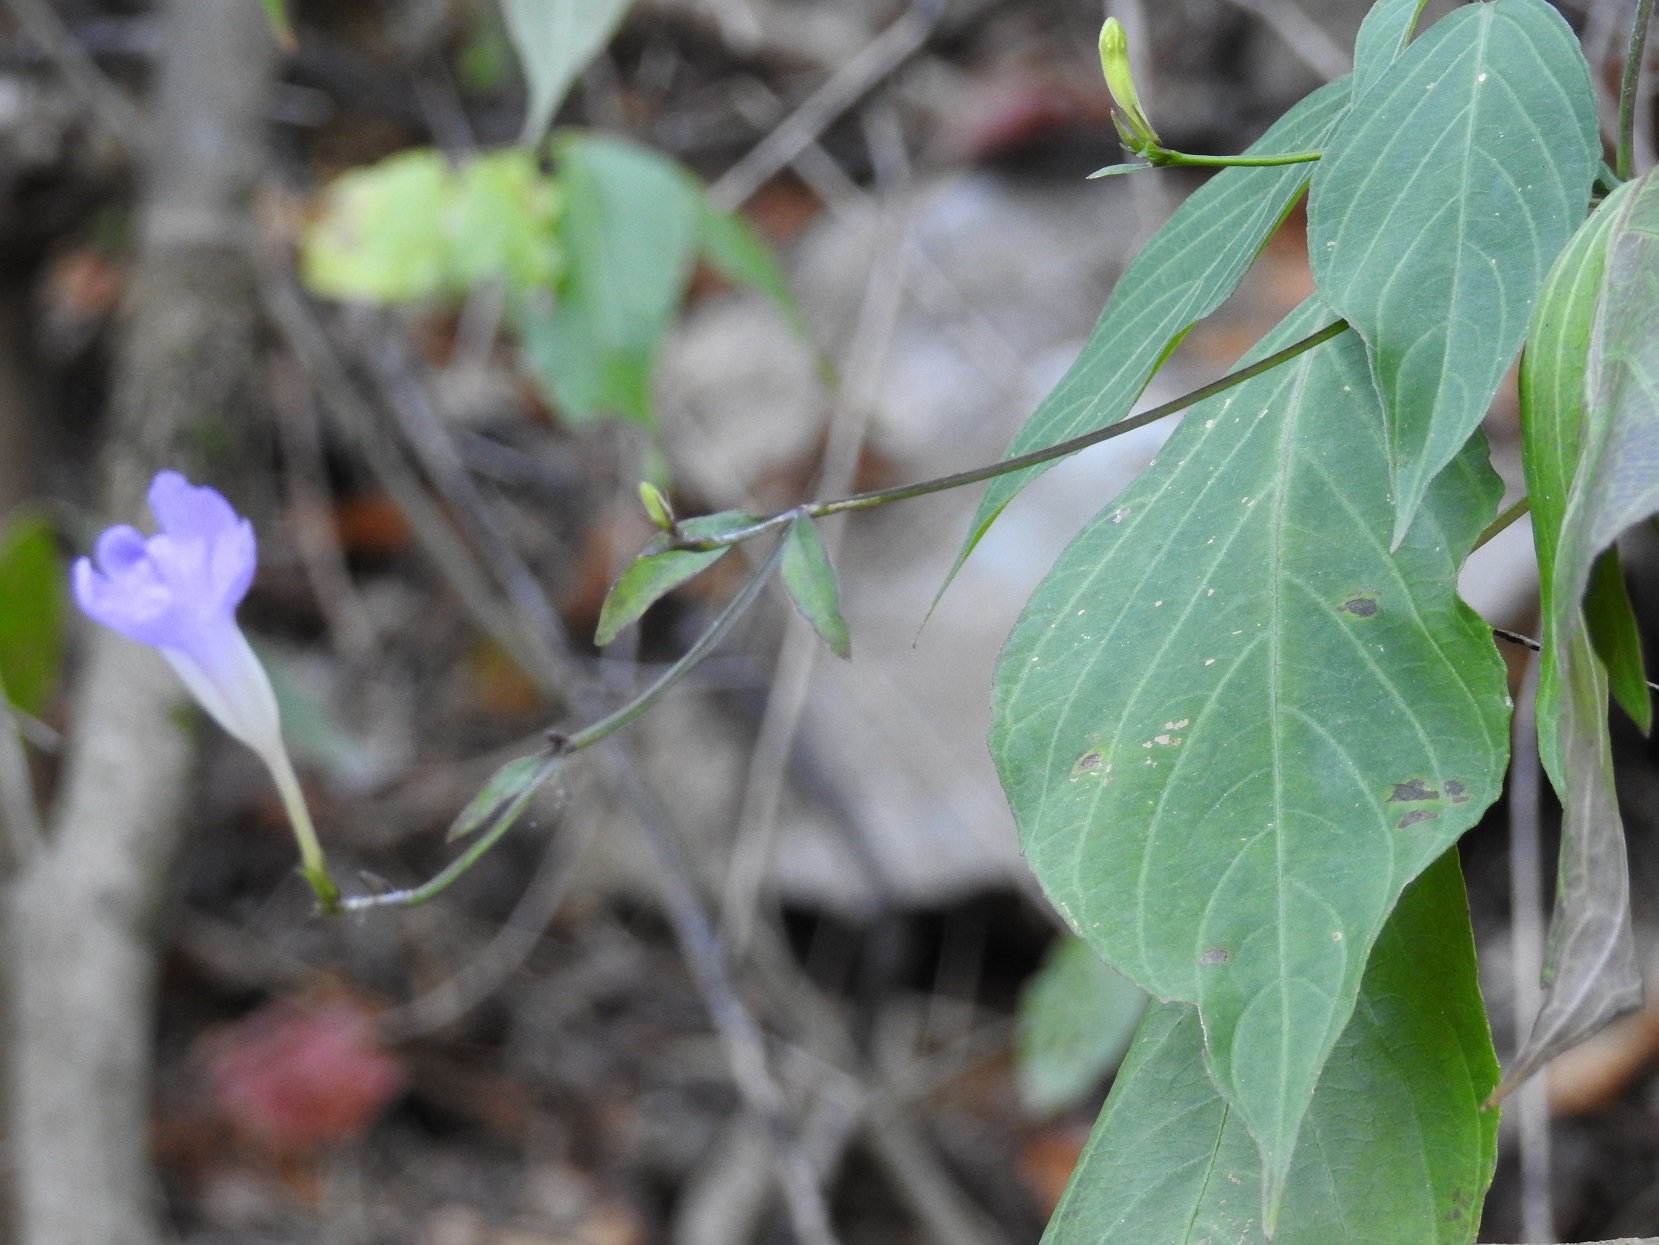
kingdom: Plantae
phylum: Tracheophyta
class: Magnoliopsida
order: Lamiales
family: Acanthaceae
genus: Ruellia
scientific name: Ruellia stemonacanthoides
